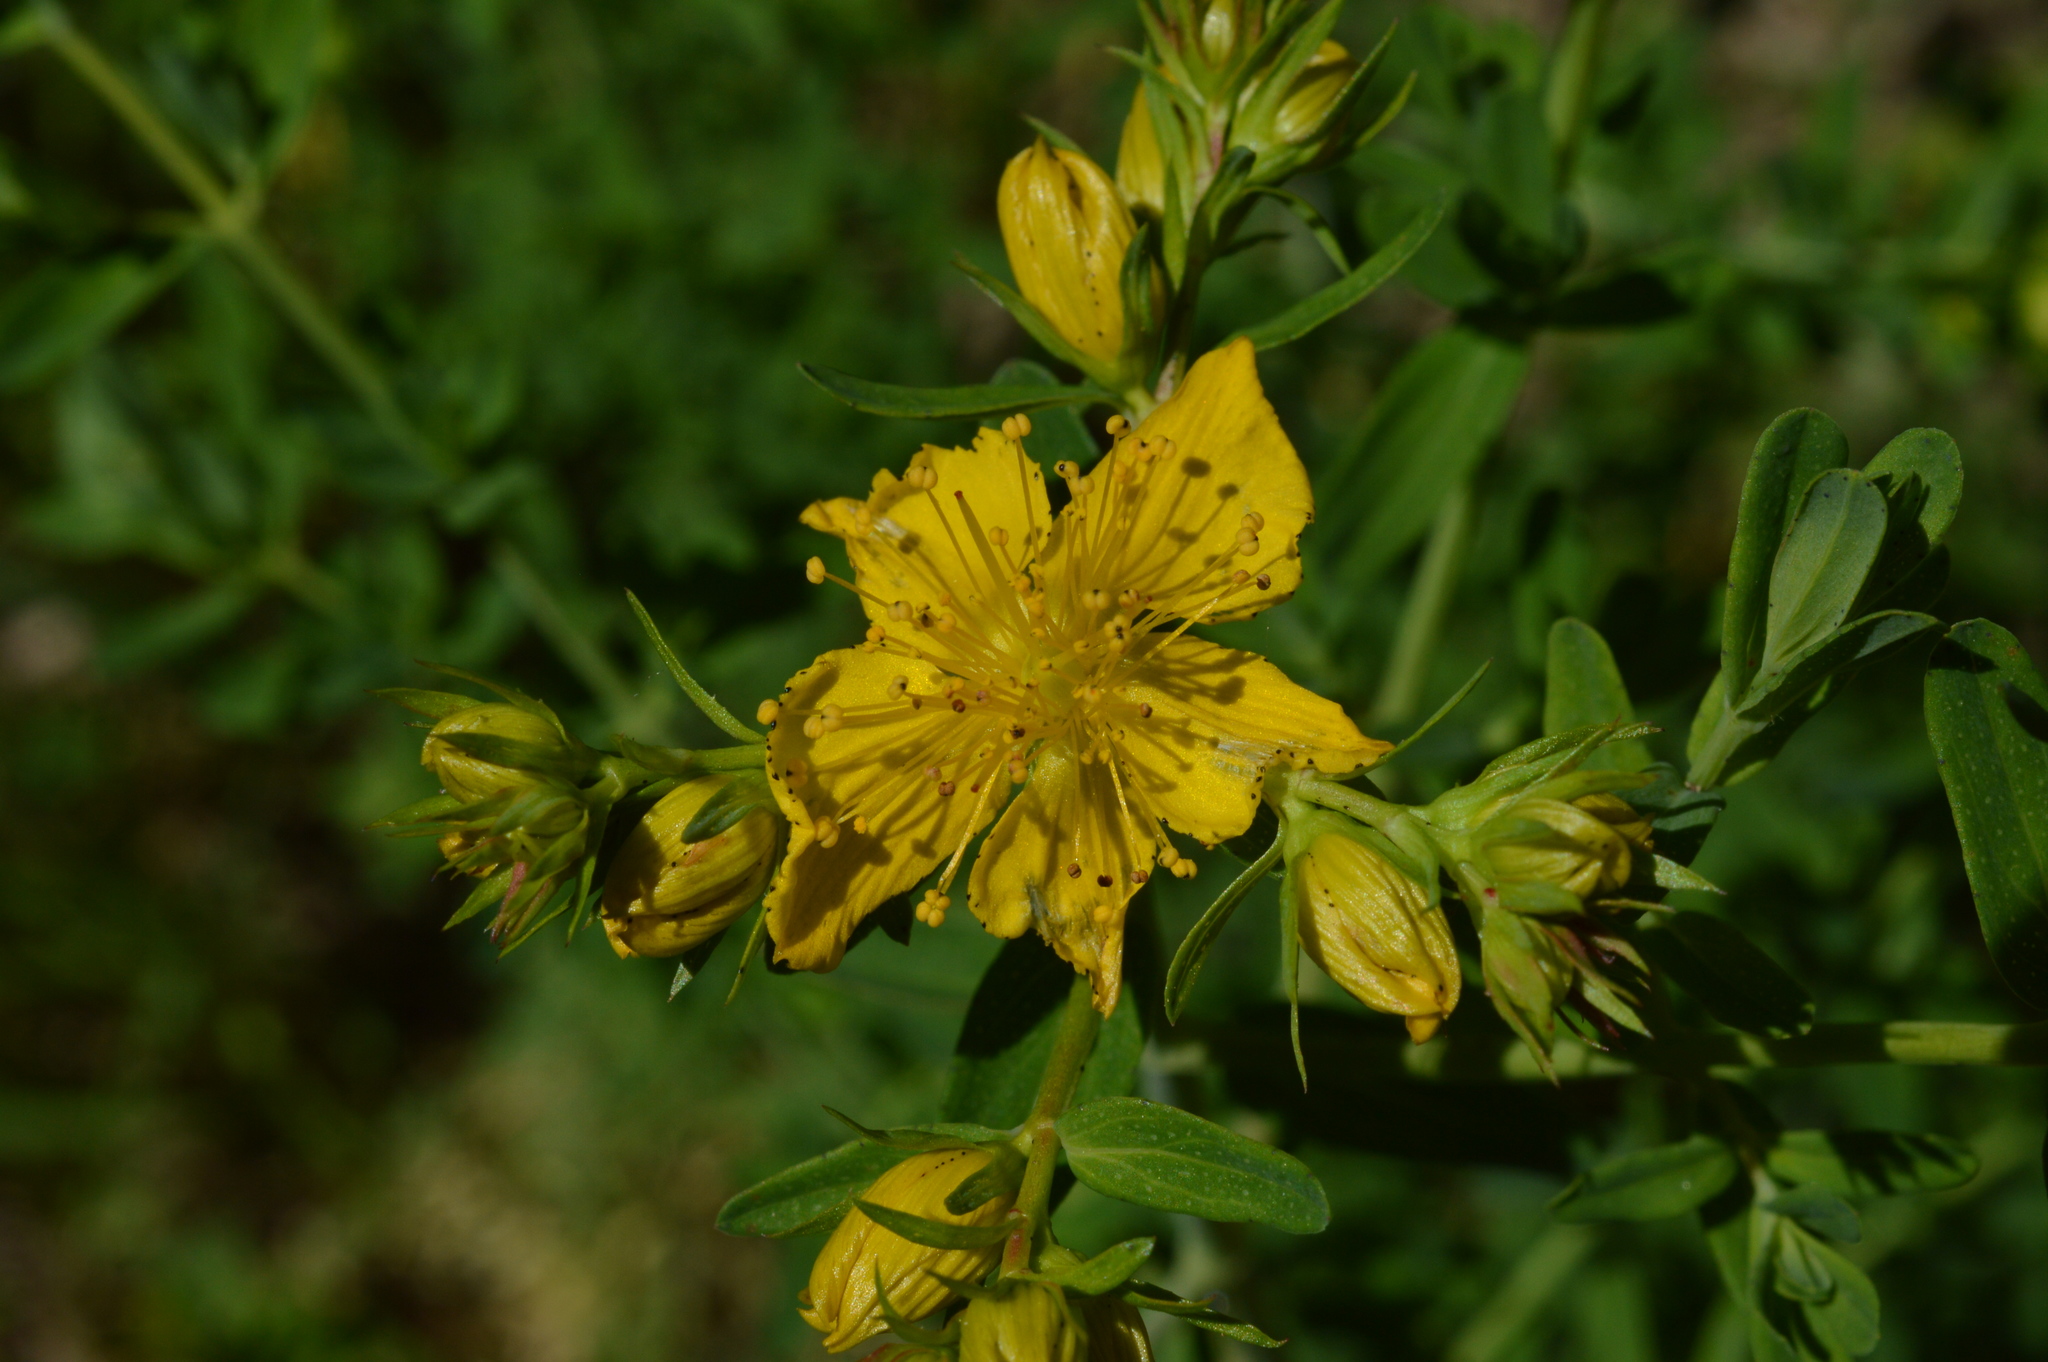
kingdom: Plantae
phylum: Tracheophyta
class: Magnoliopsida
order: Malpighiales
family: Hypericaceae
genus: Hypericum
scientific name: Hypericum perforatum
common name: Common st. johnswort
